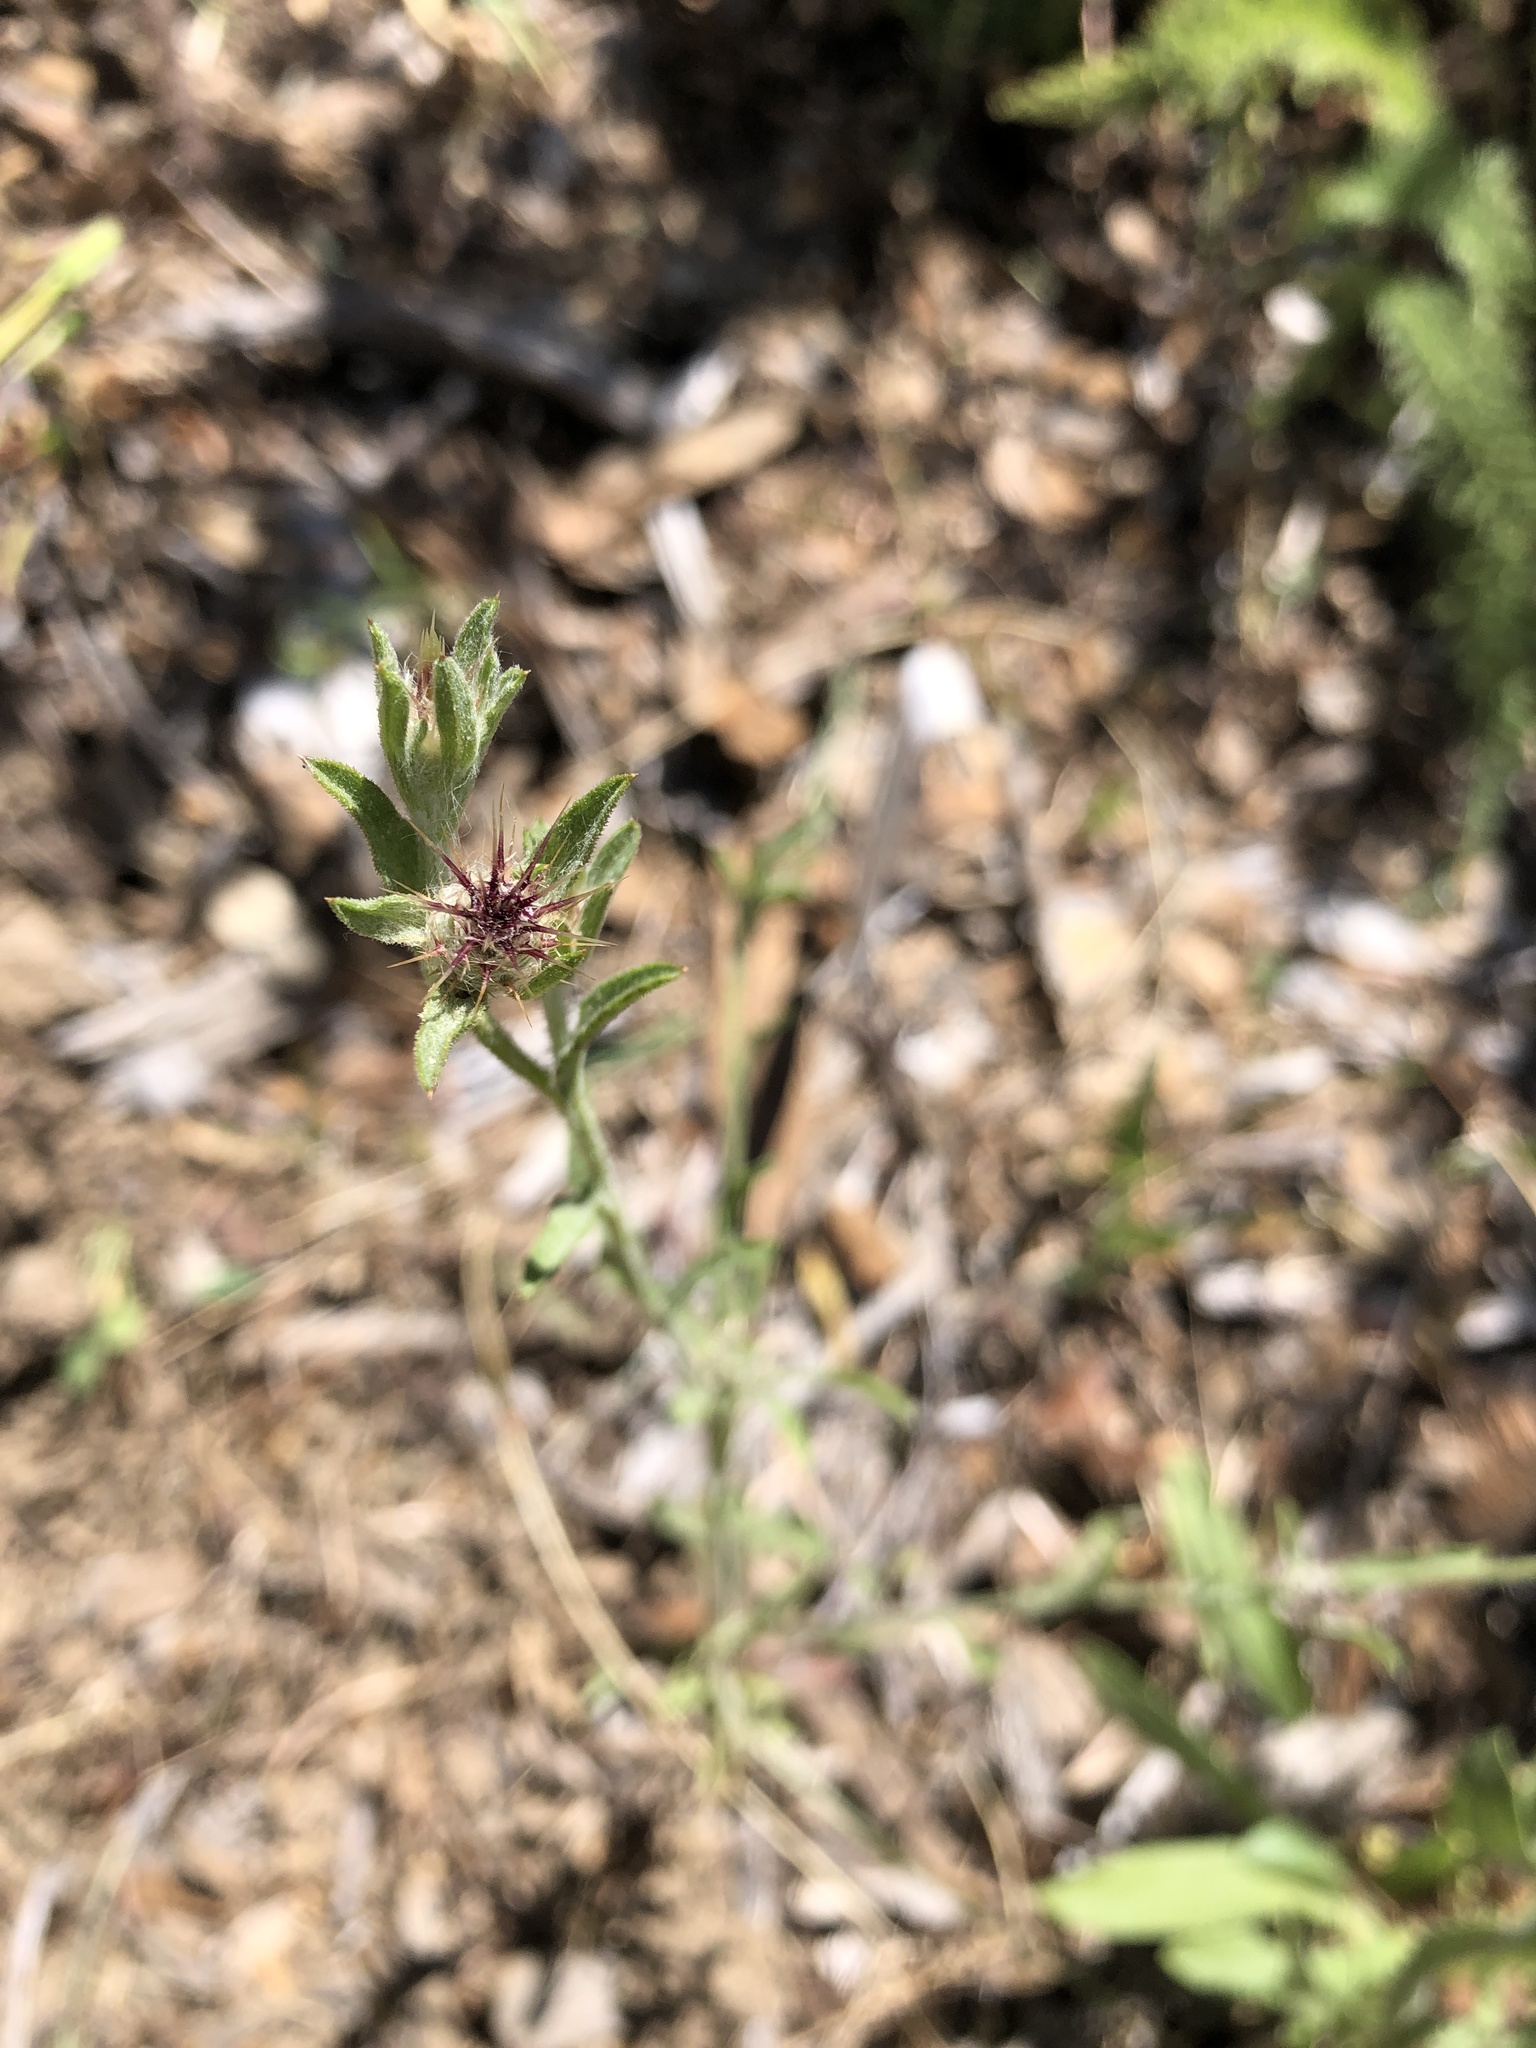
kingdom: Plantae
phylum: Tracheophyta
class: Magnoliopsida
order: Asterales
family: Asteraceae
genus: Centaurea
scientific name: Centaurea melitensis
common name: Maltese star-thistle
